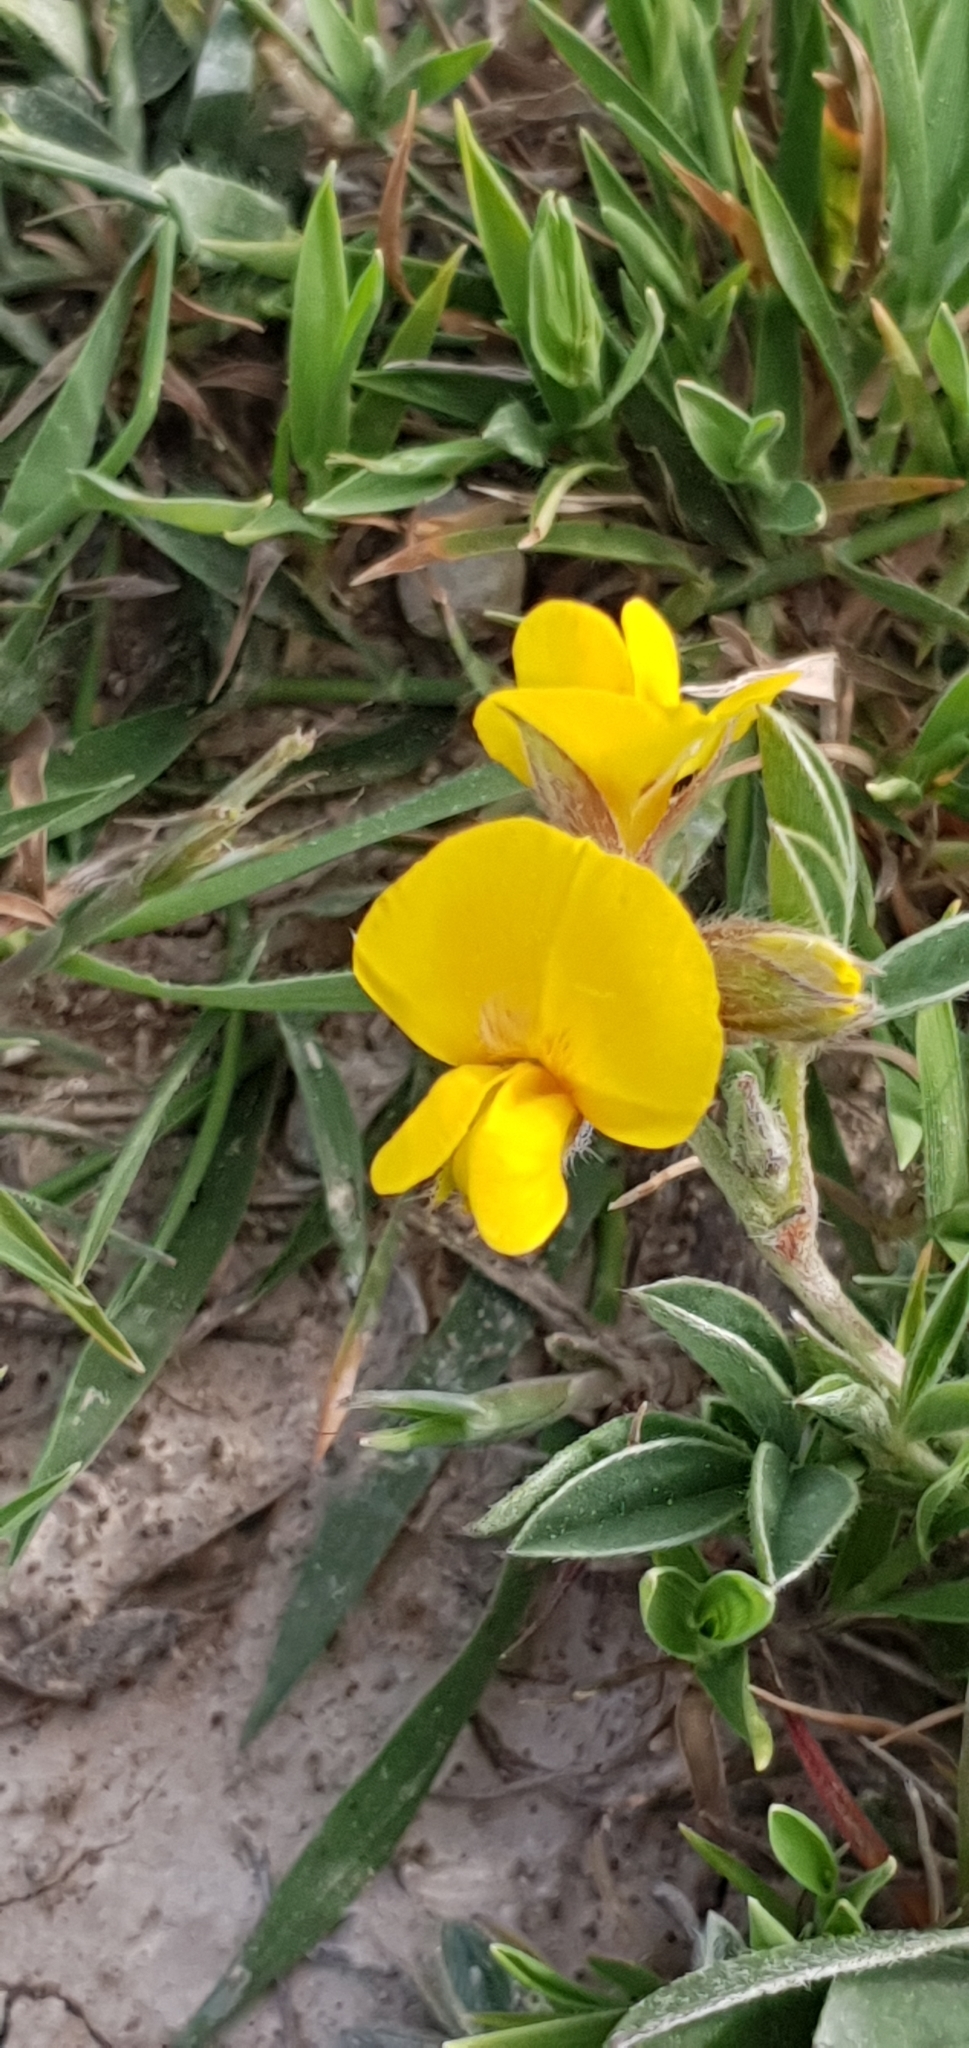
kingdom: Plantae
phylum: Tracheophyta
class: Magnoliopsida
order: Fabales
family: Fabaceae
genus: Argyrolobium
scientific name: Argyrolobium zanonii
